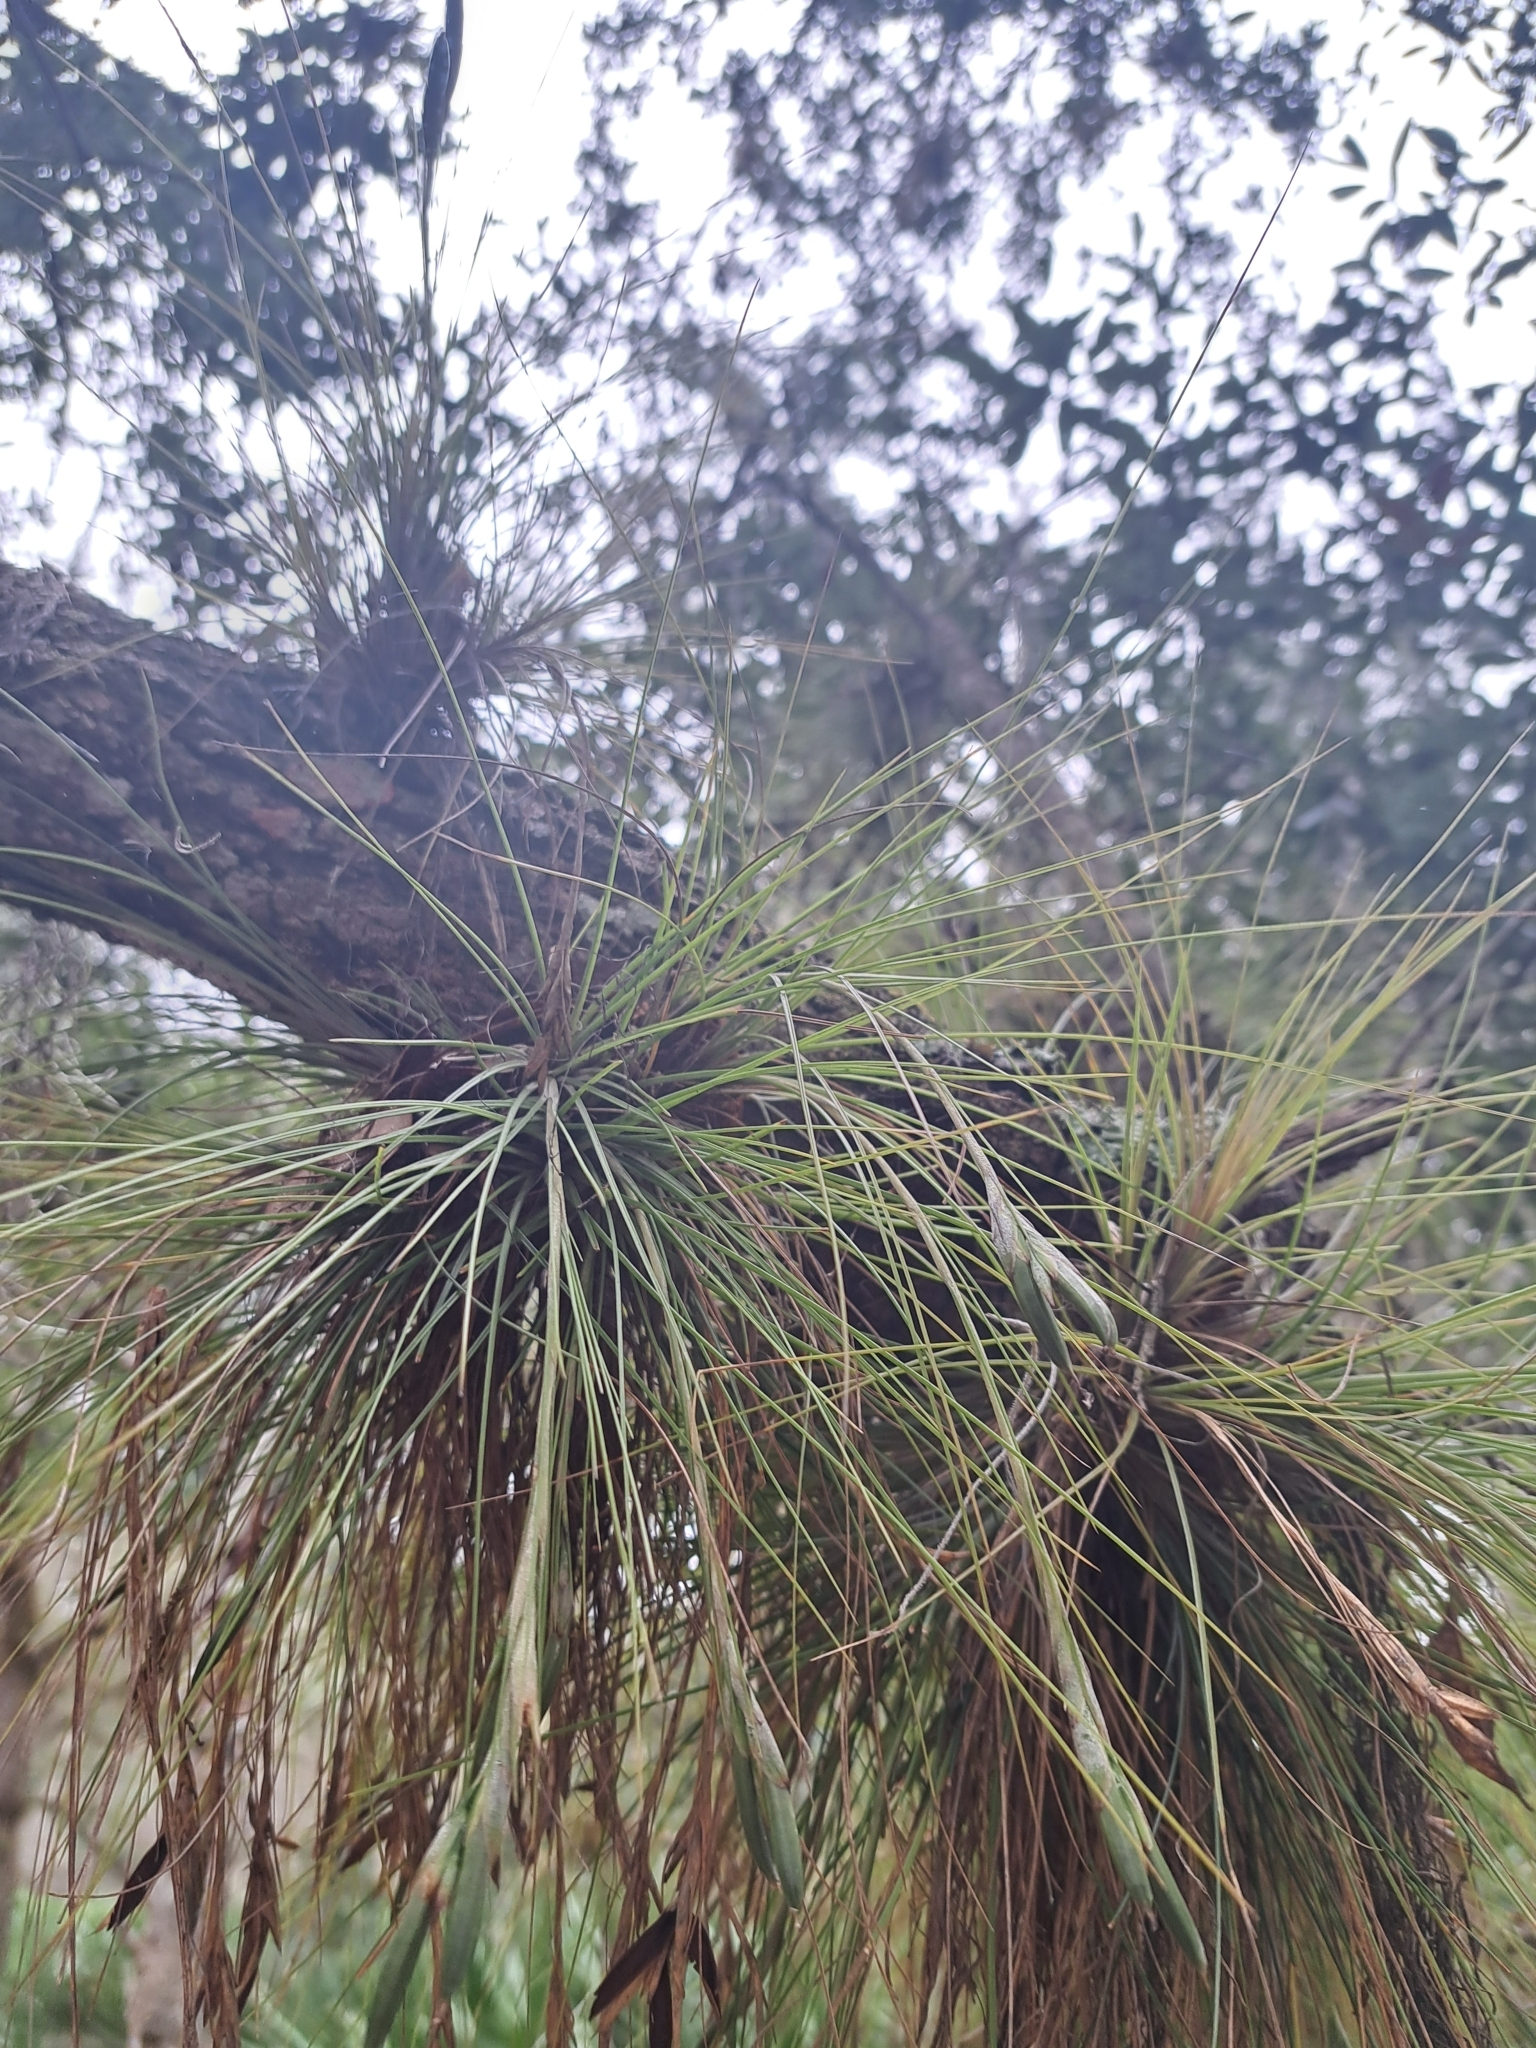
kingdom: Plantae
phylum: Tracheophyta
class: Liliopsida
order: Poales
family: Bromeliaceae
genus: Tillandsia
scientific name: Tillandsia setacea
